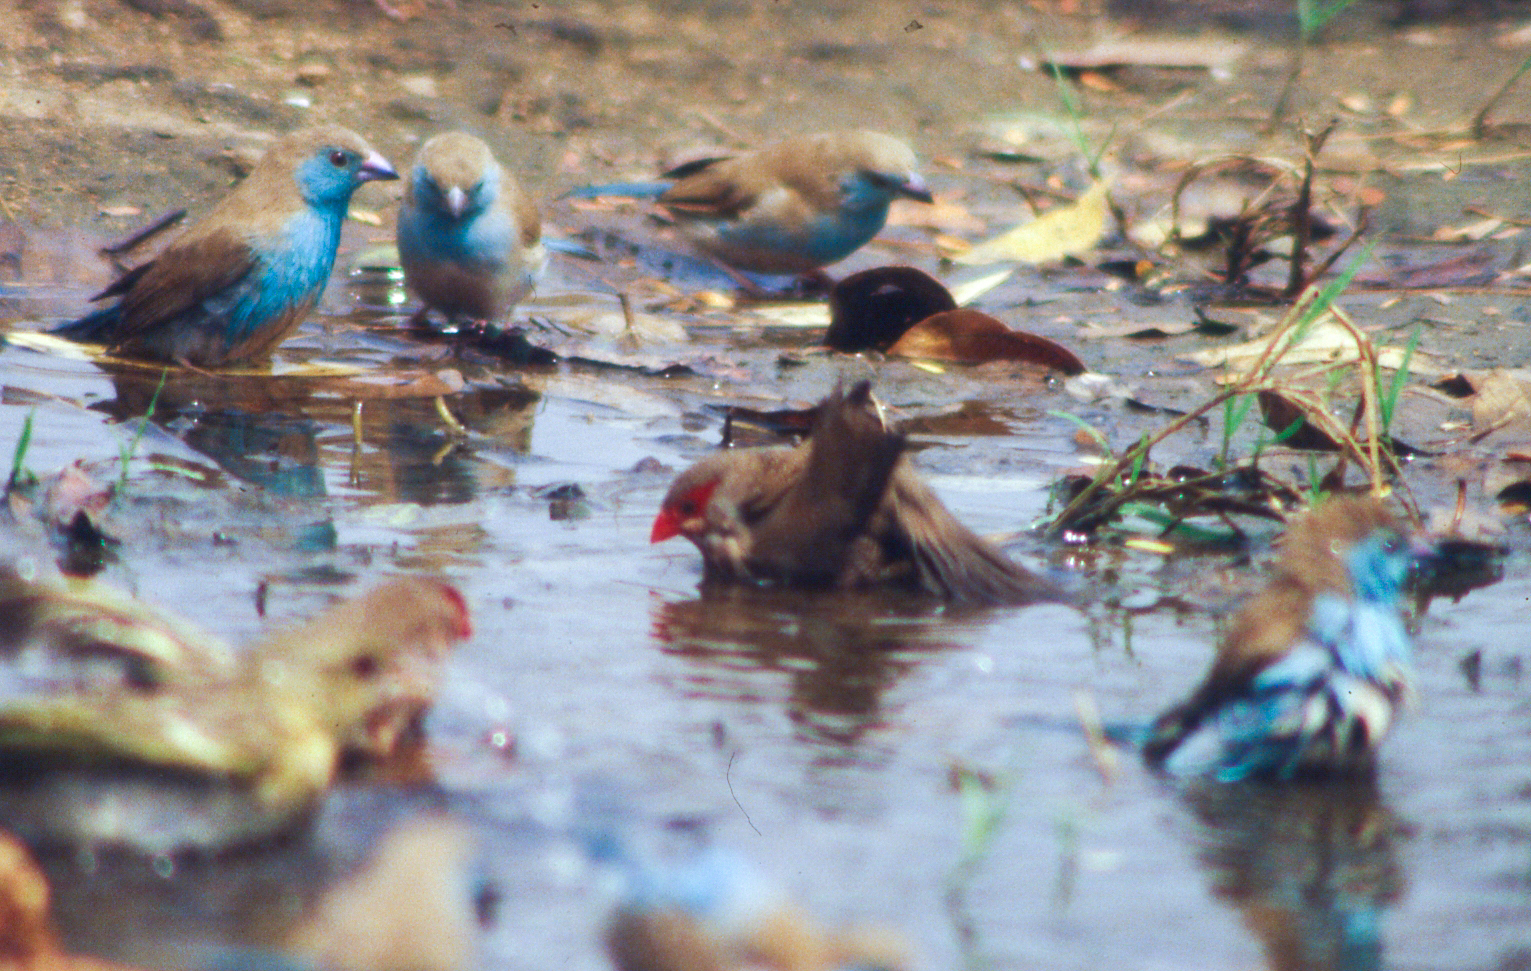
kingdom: Animalia
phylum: Chordata
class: Aves
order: Passeriformes
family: Estrildidae
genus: Uraeginthus
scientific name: Uraeginthus angolensis
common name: Blue waxbill
